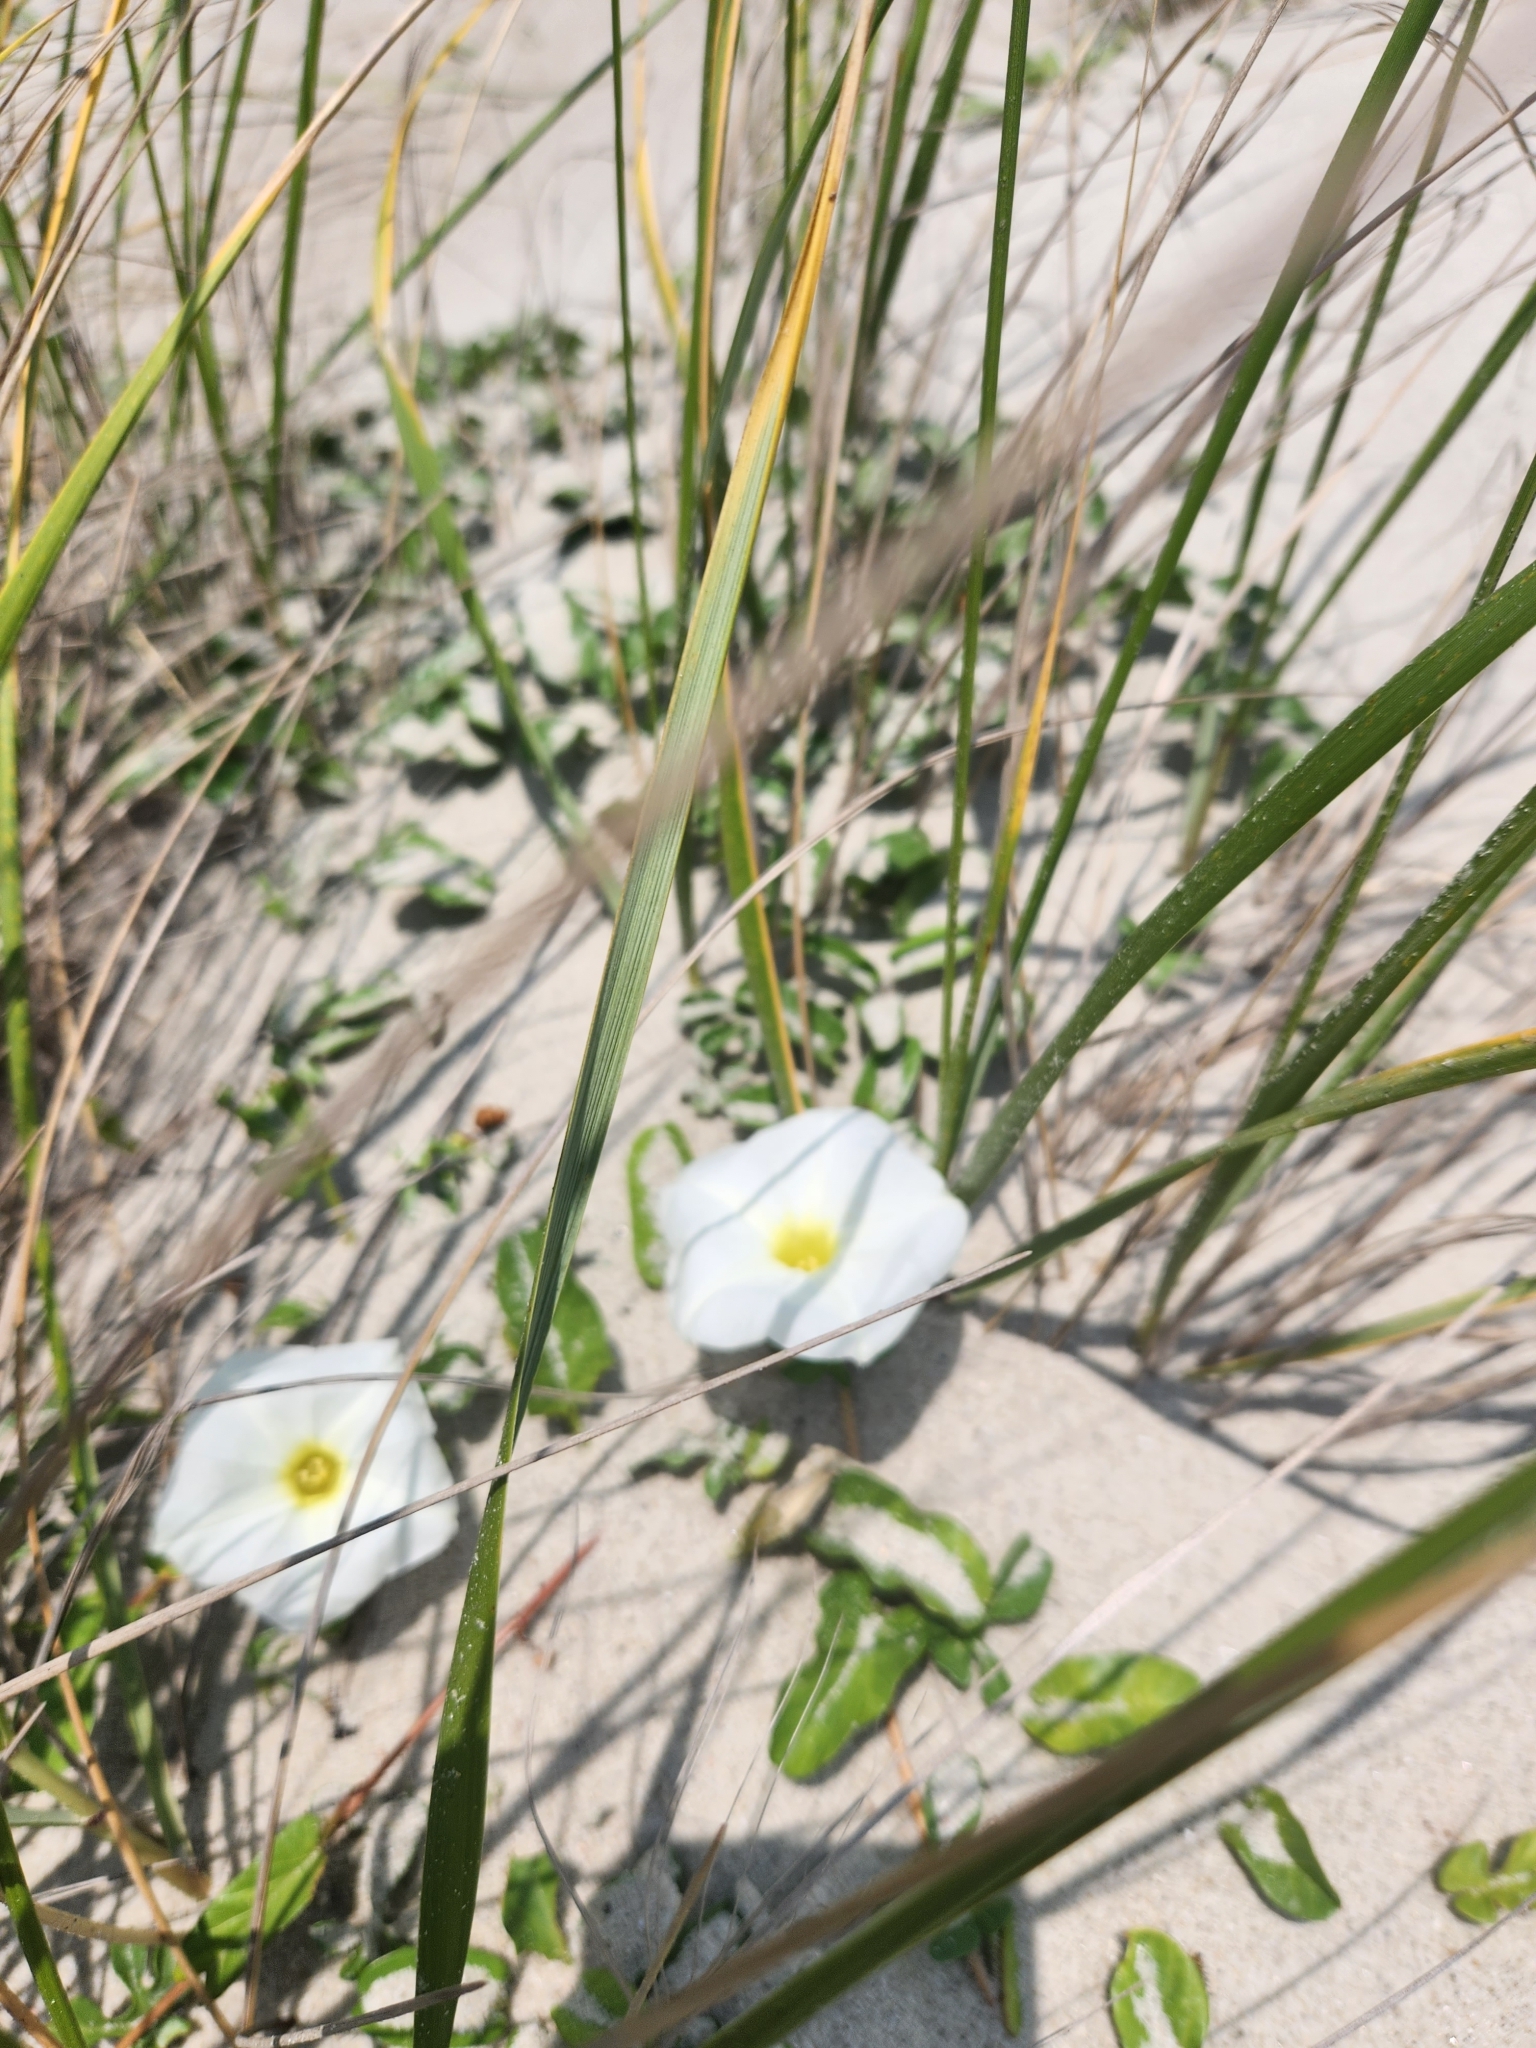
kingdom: Plantae
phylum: Tracheophyta
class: Magnoliopsida
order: Solanales
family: Convolvulaceae
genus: Ipomoea
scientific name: Ipomoea imperati
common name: Fiddle-leaf morning-glory
